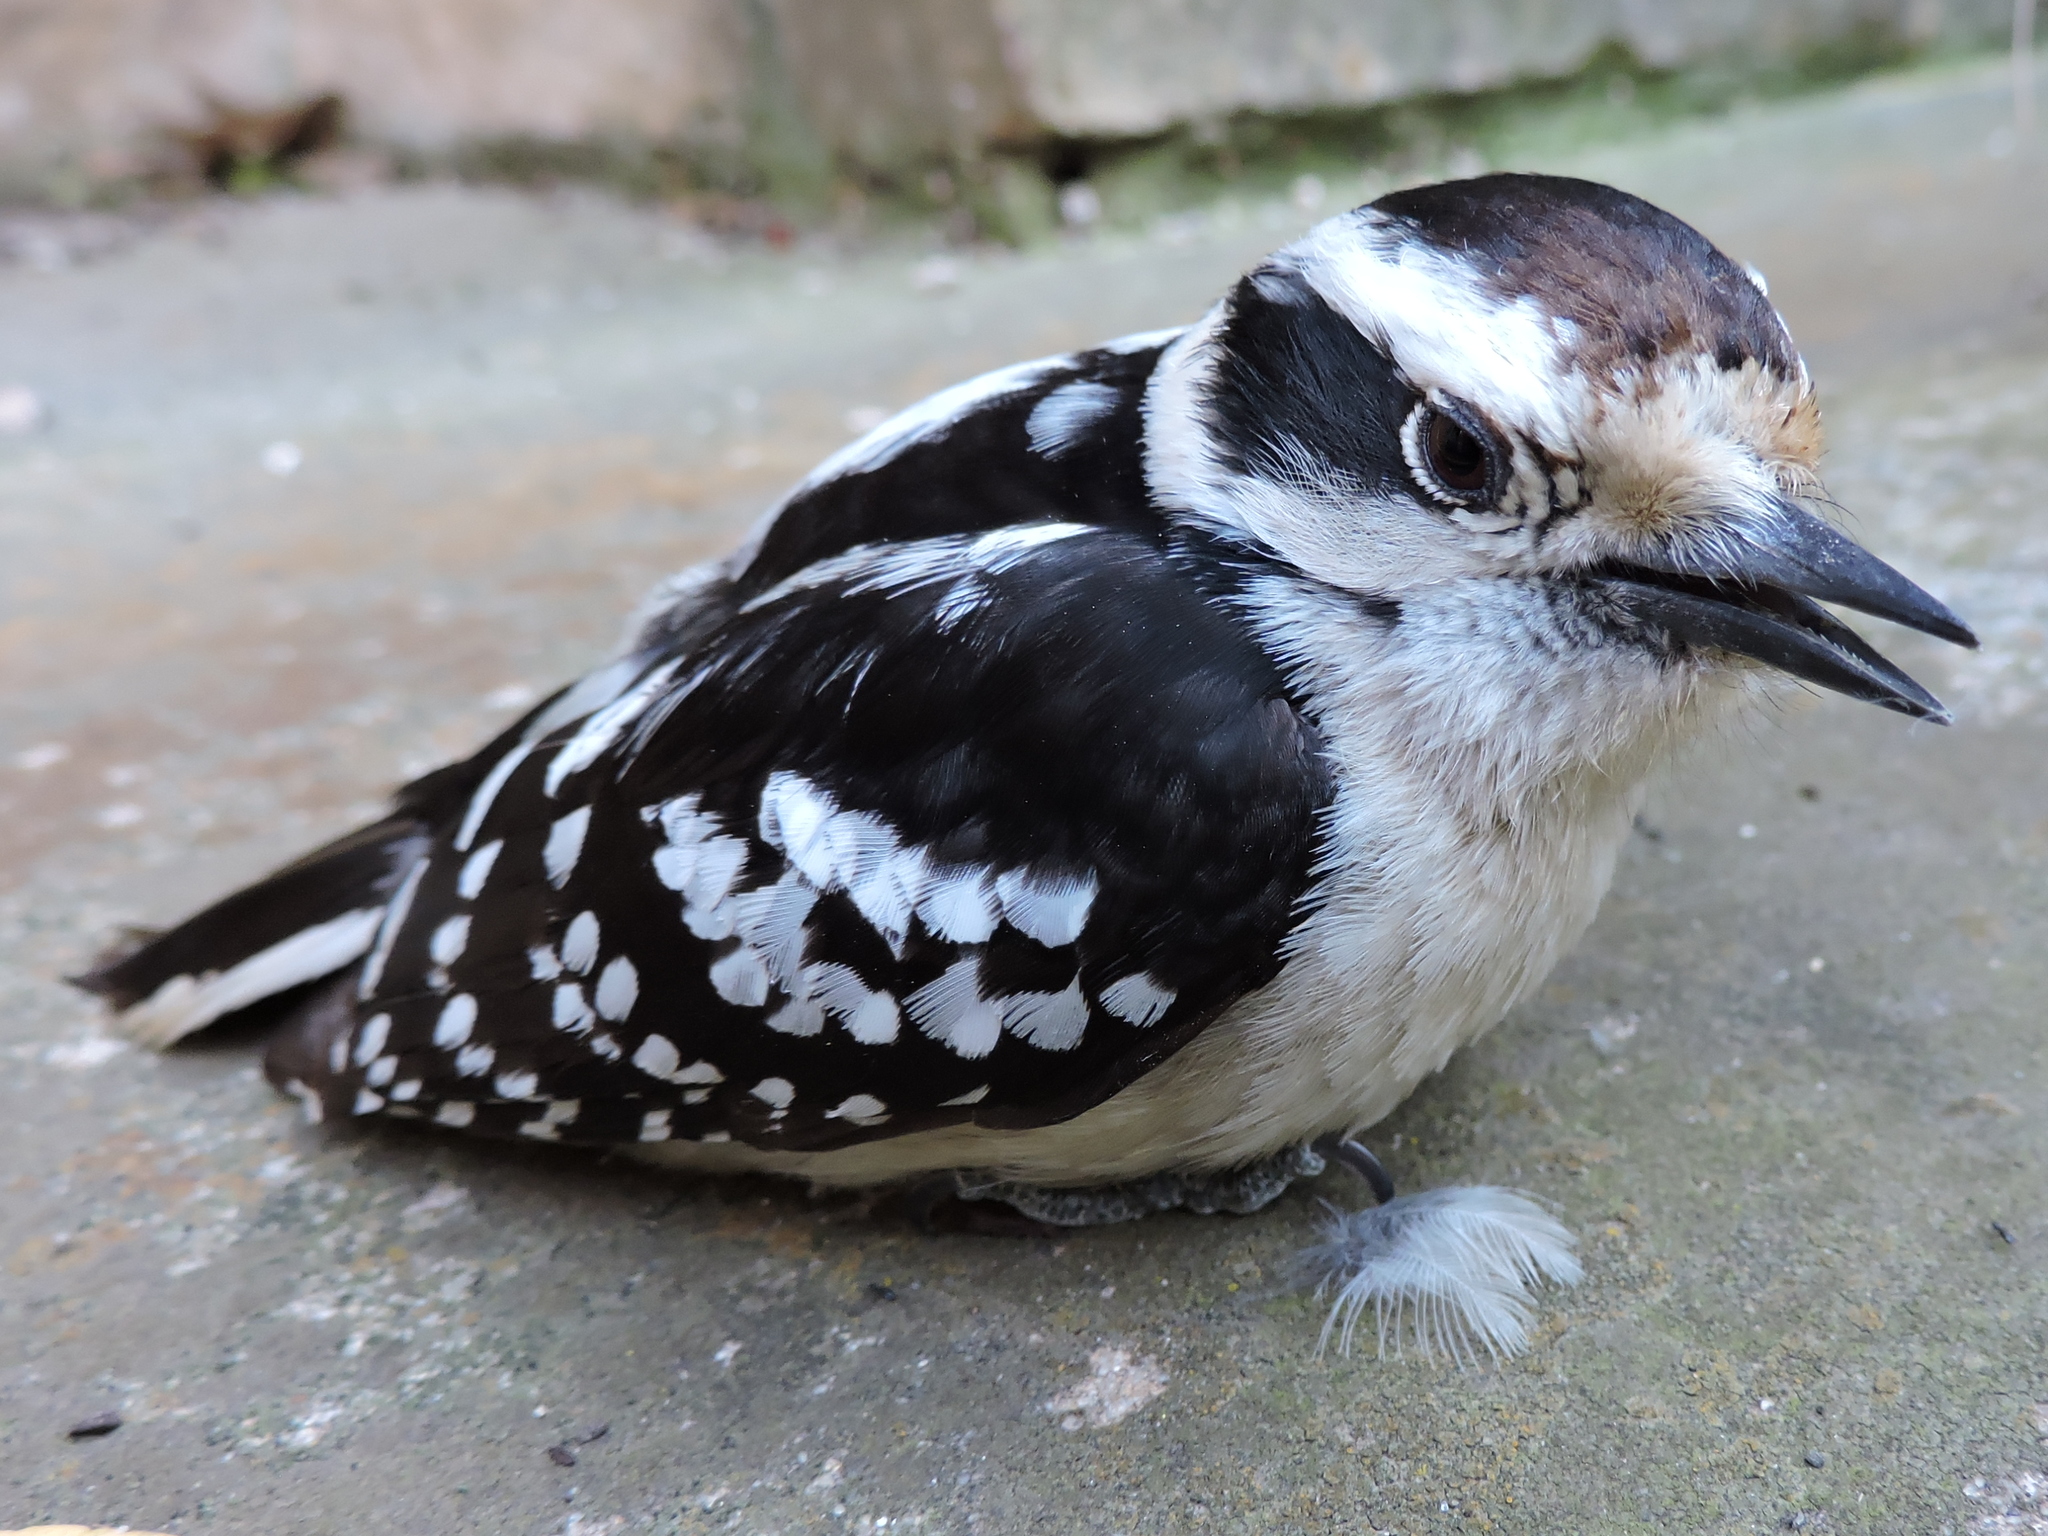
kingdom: Animalia
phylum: Chordata
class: Aves
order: Piciformes
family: Picidae
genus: Dryobates
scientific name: Dryobates pubescens
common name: Downy woodpecker
